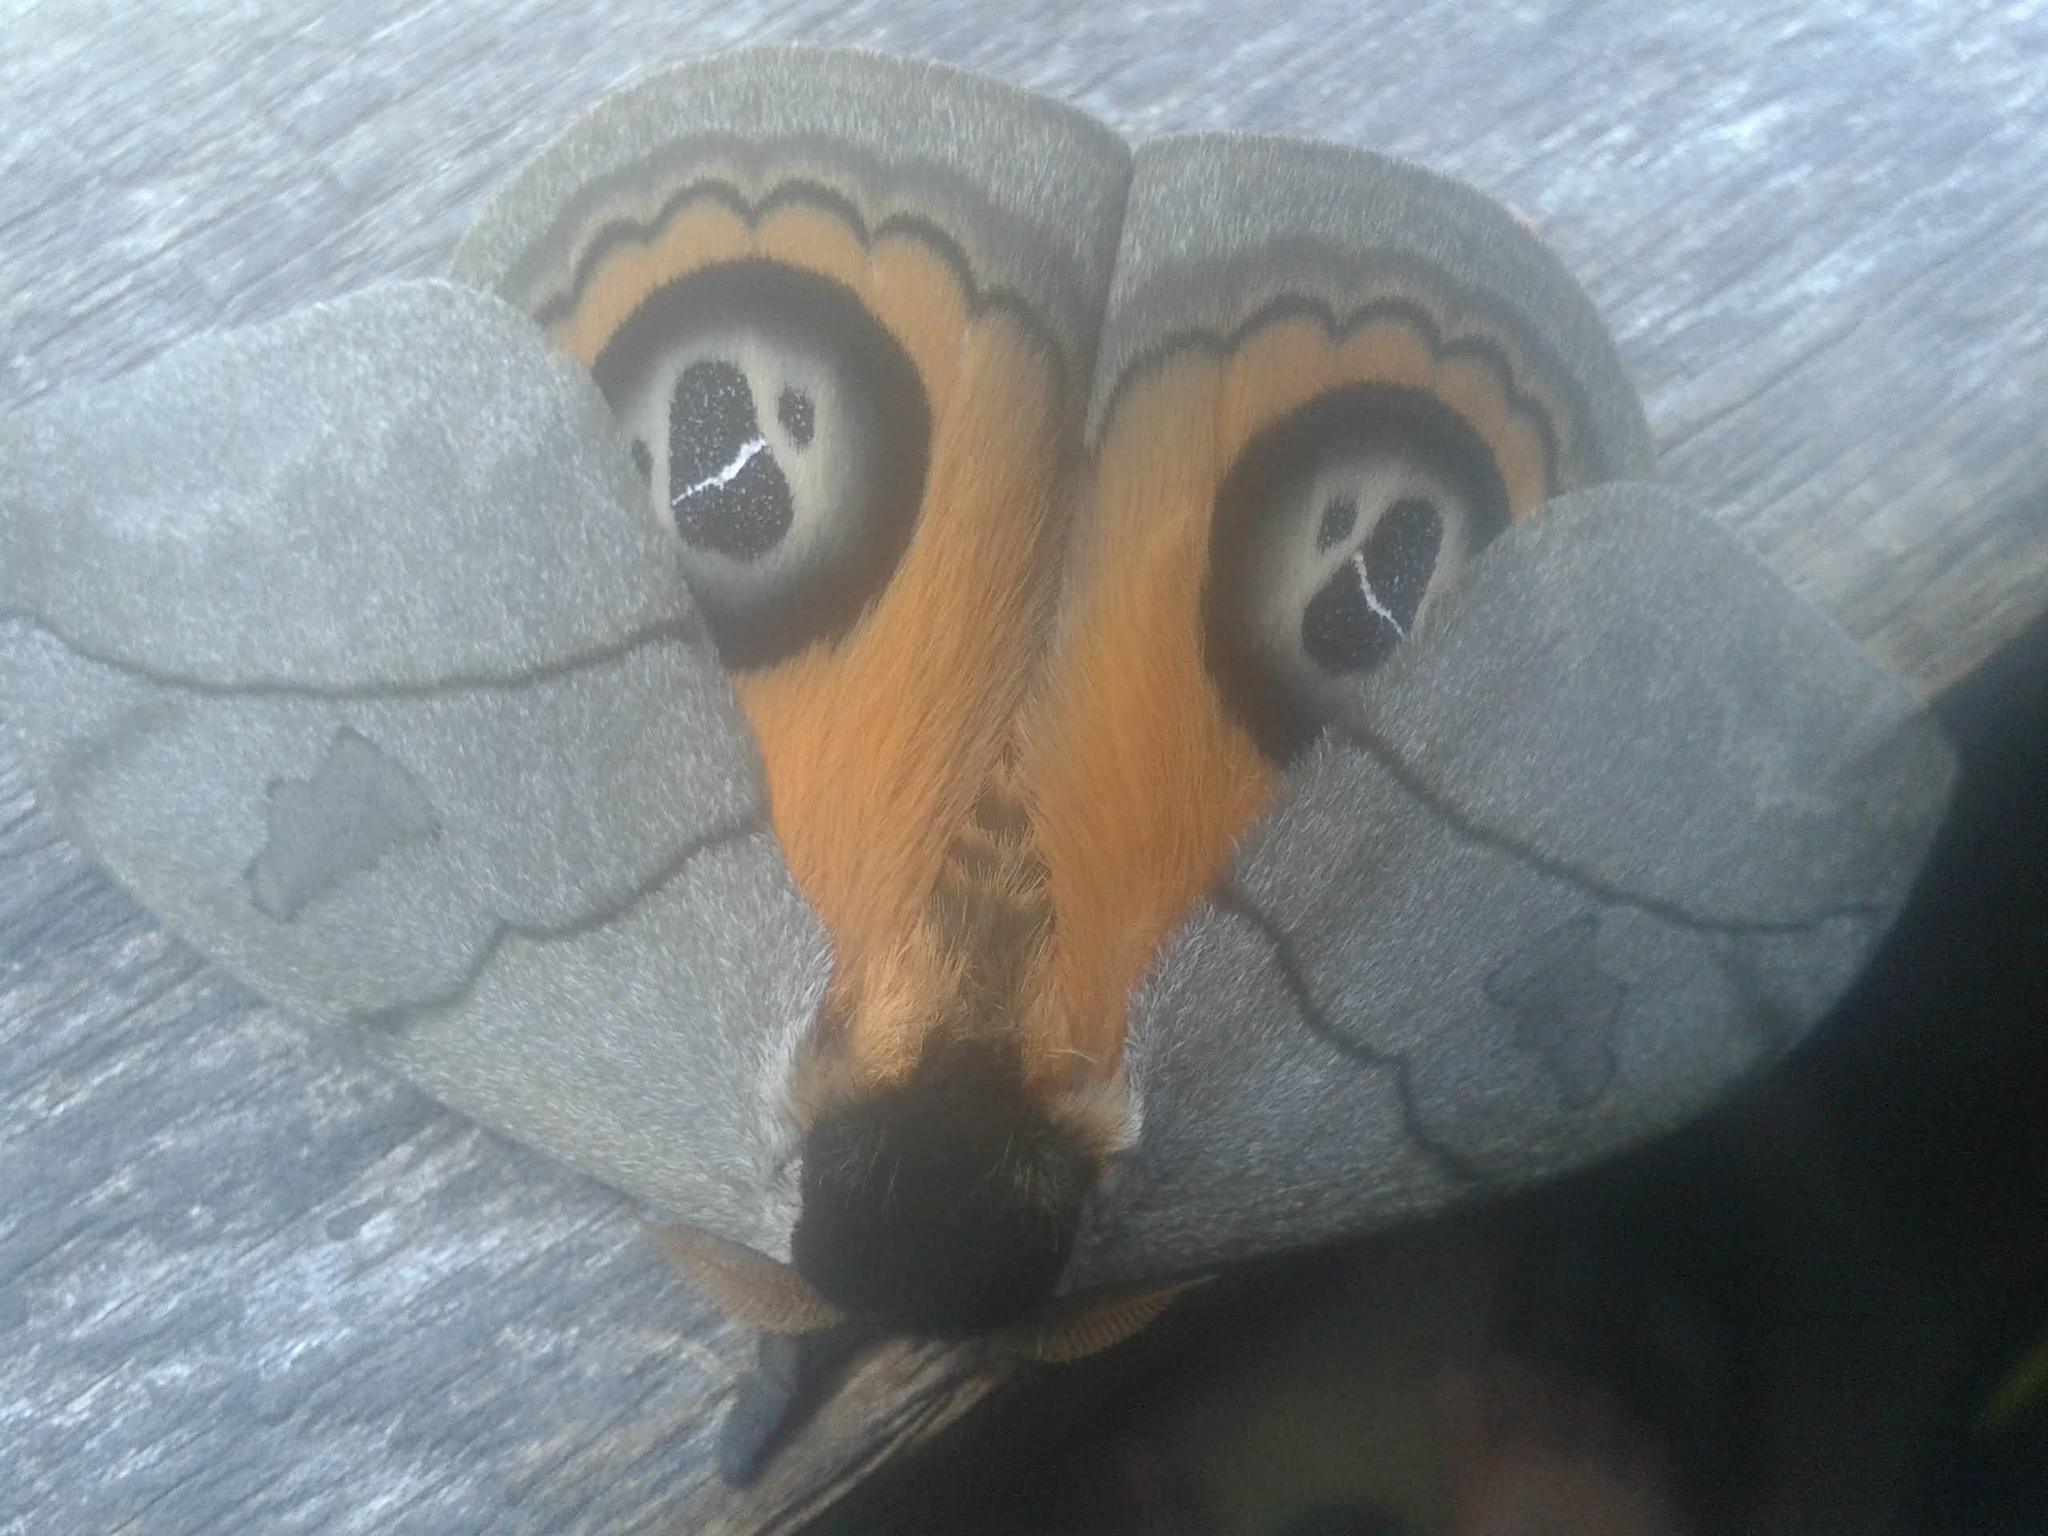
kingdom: Animalia
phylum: Arthropoda
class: Insecta
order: Lepidoptera
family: Saturniidae
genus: Automeris
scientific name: Automeris excreta
